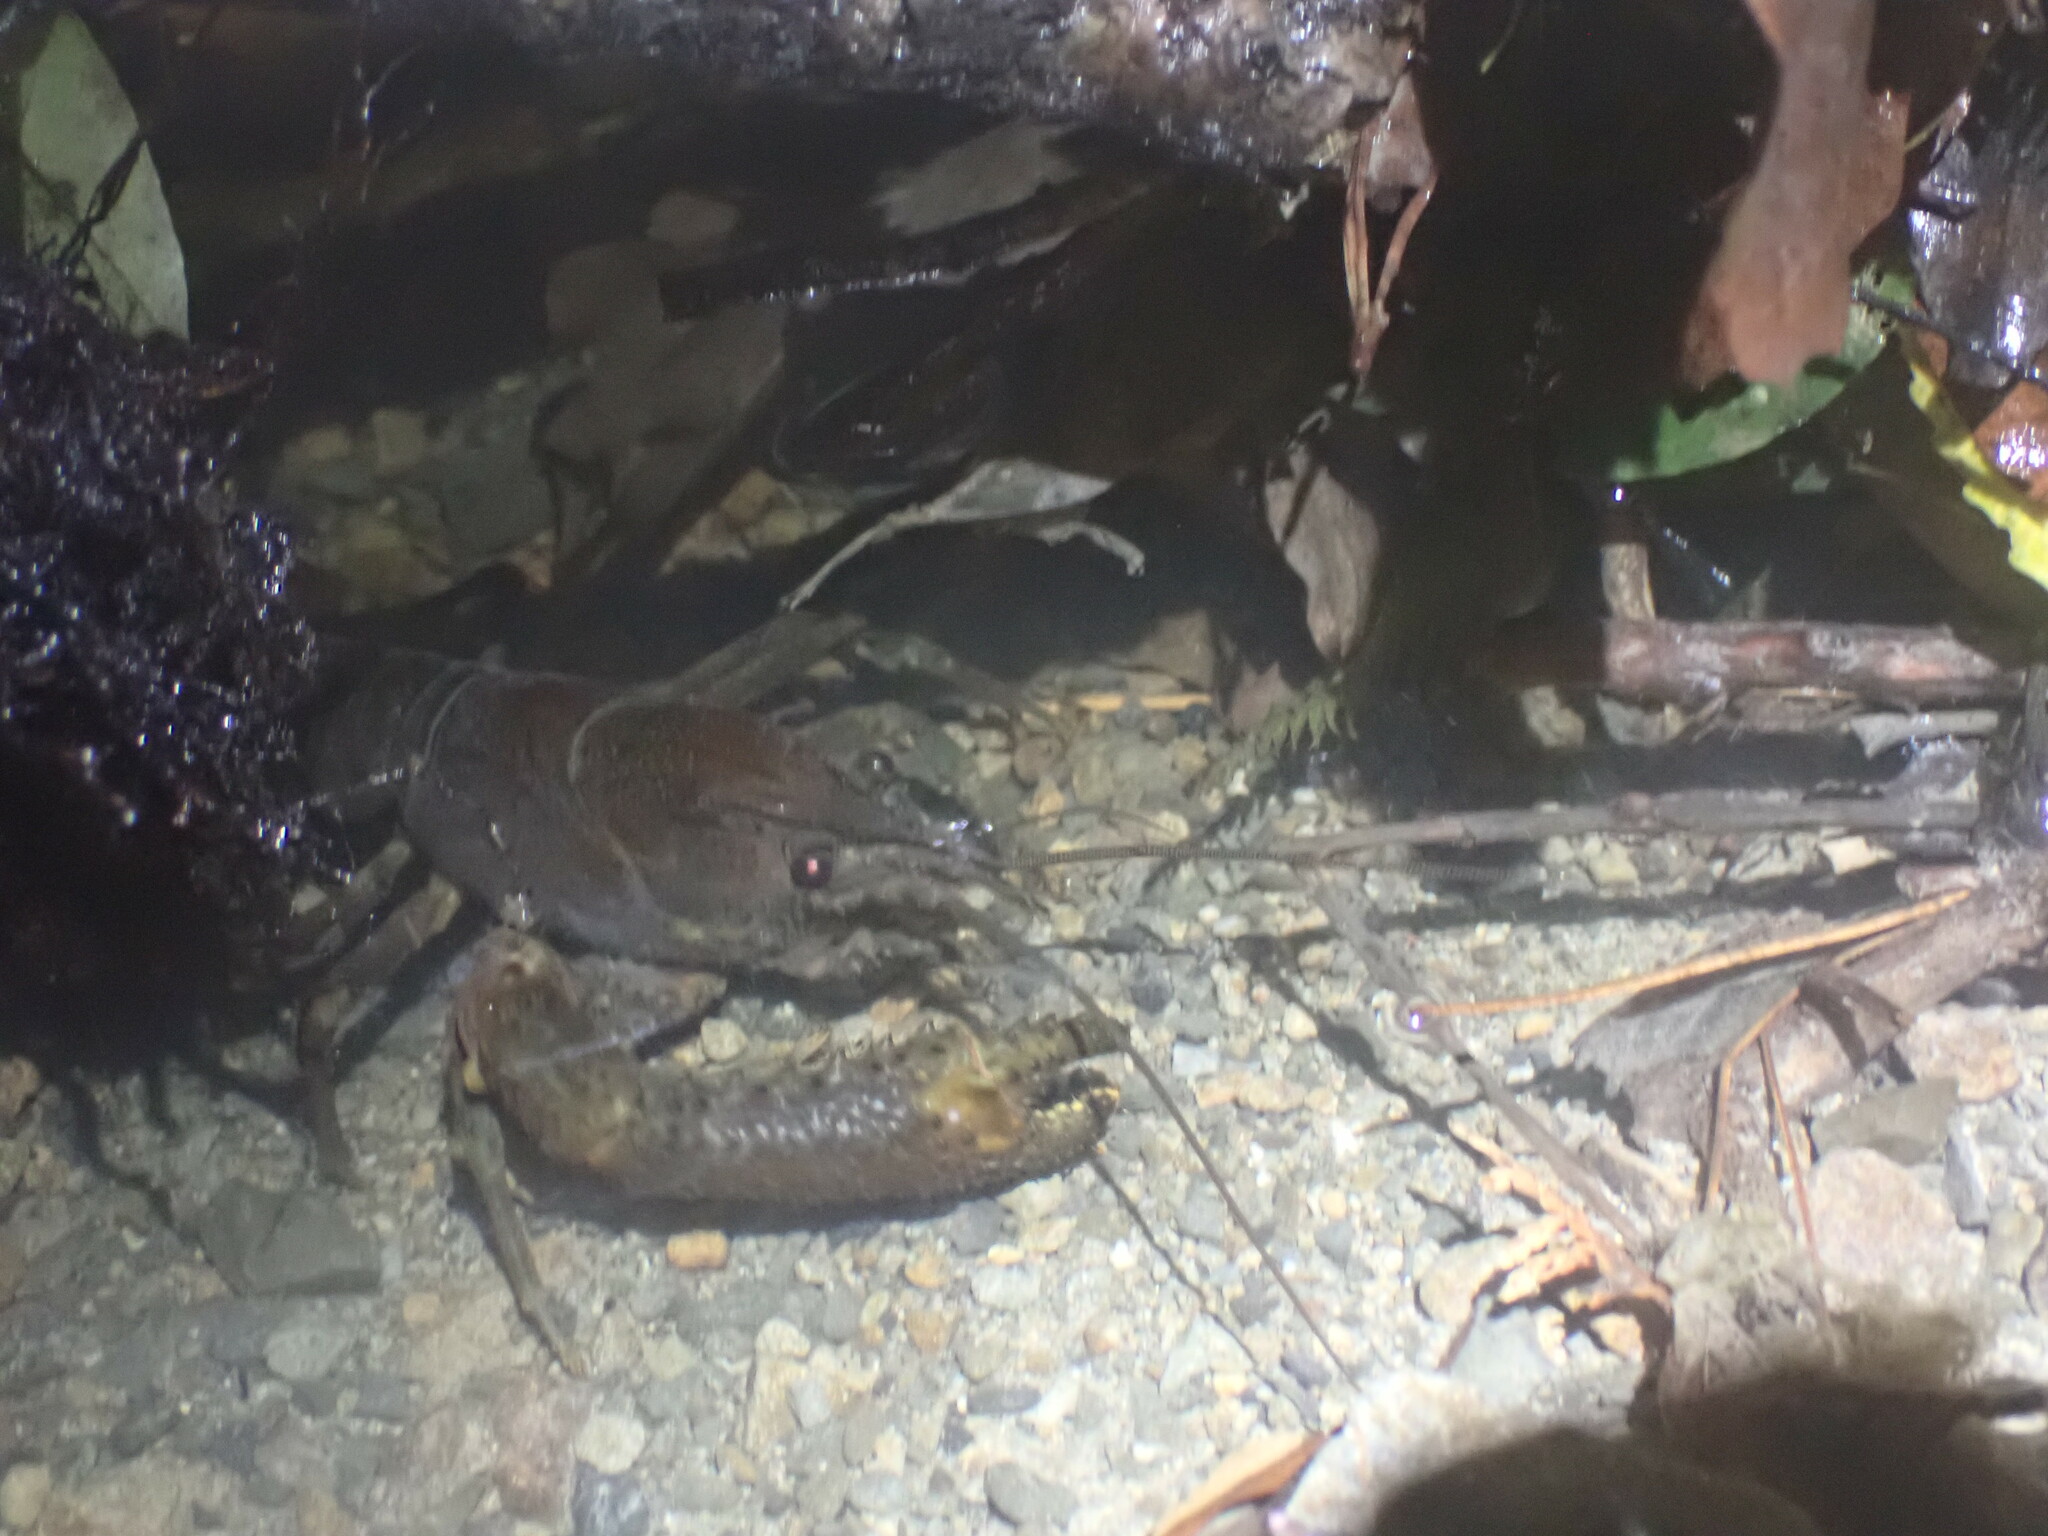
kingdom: Animalia
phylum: Arthropoda
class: Malacostraca
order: Decapoda
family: Parastacidae
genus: Paranephrops
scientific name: Paranephrops planifrons
